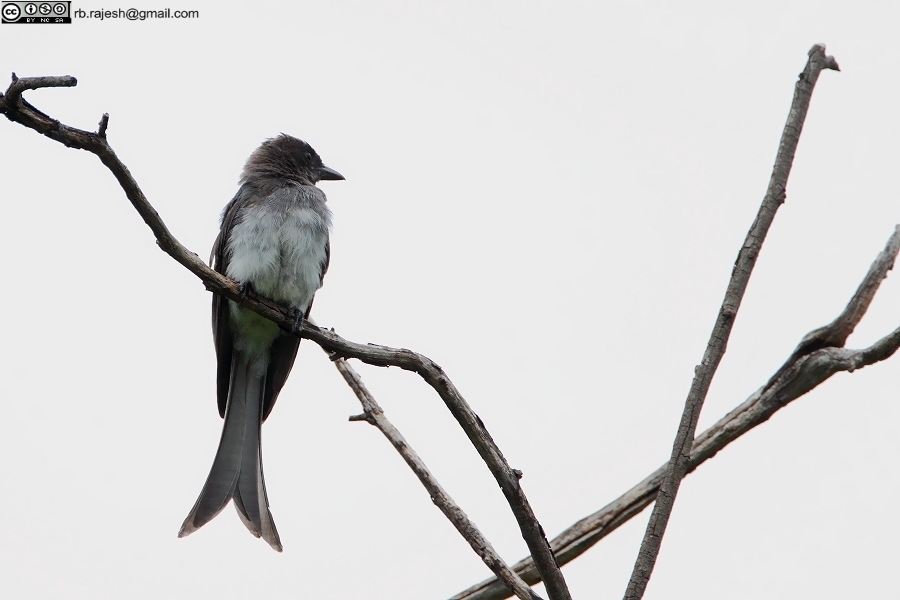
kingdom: Animalia
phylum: Chordata
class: Aves
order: Passeriformes
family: Dicruridae
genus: Dicrurus
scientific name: Dicrurus caerulescens
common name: White-bellied drongo
